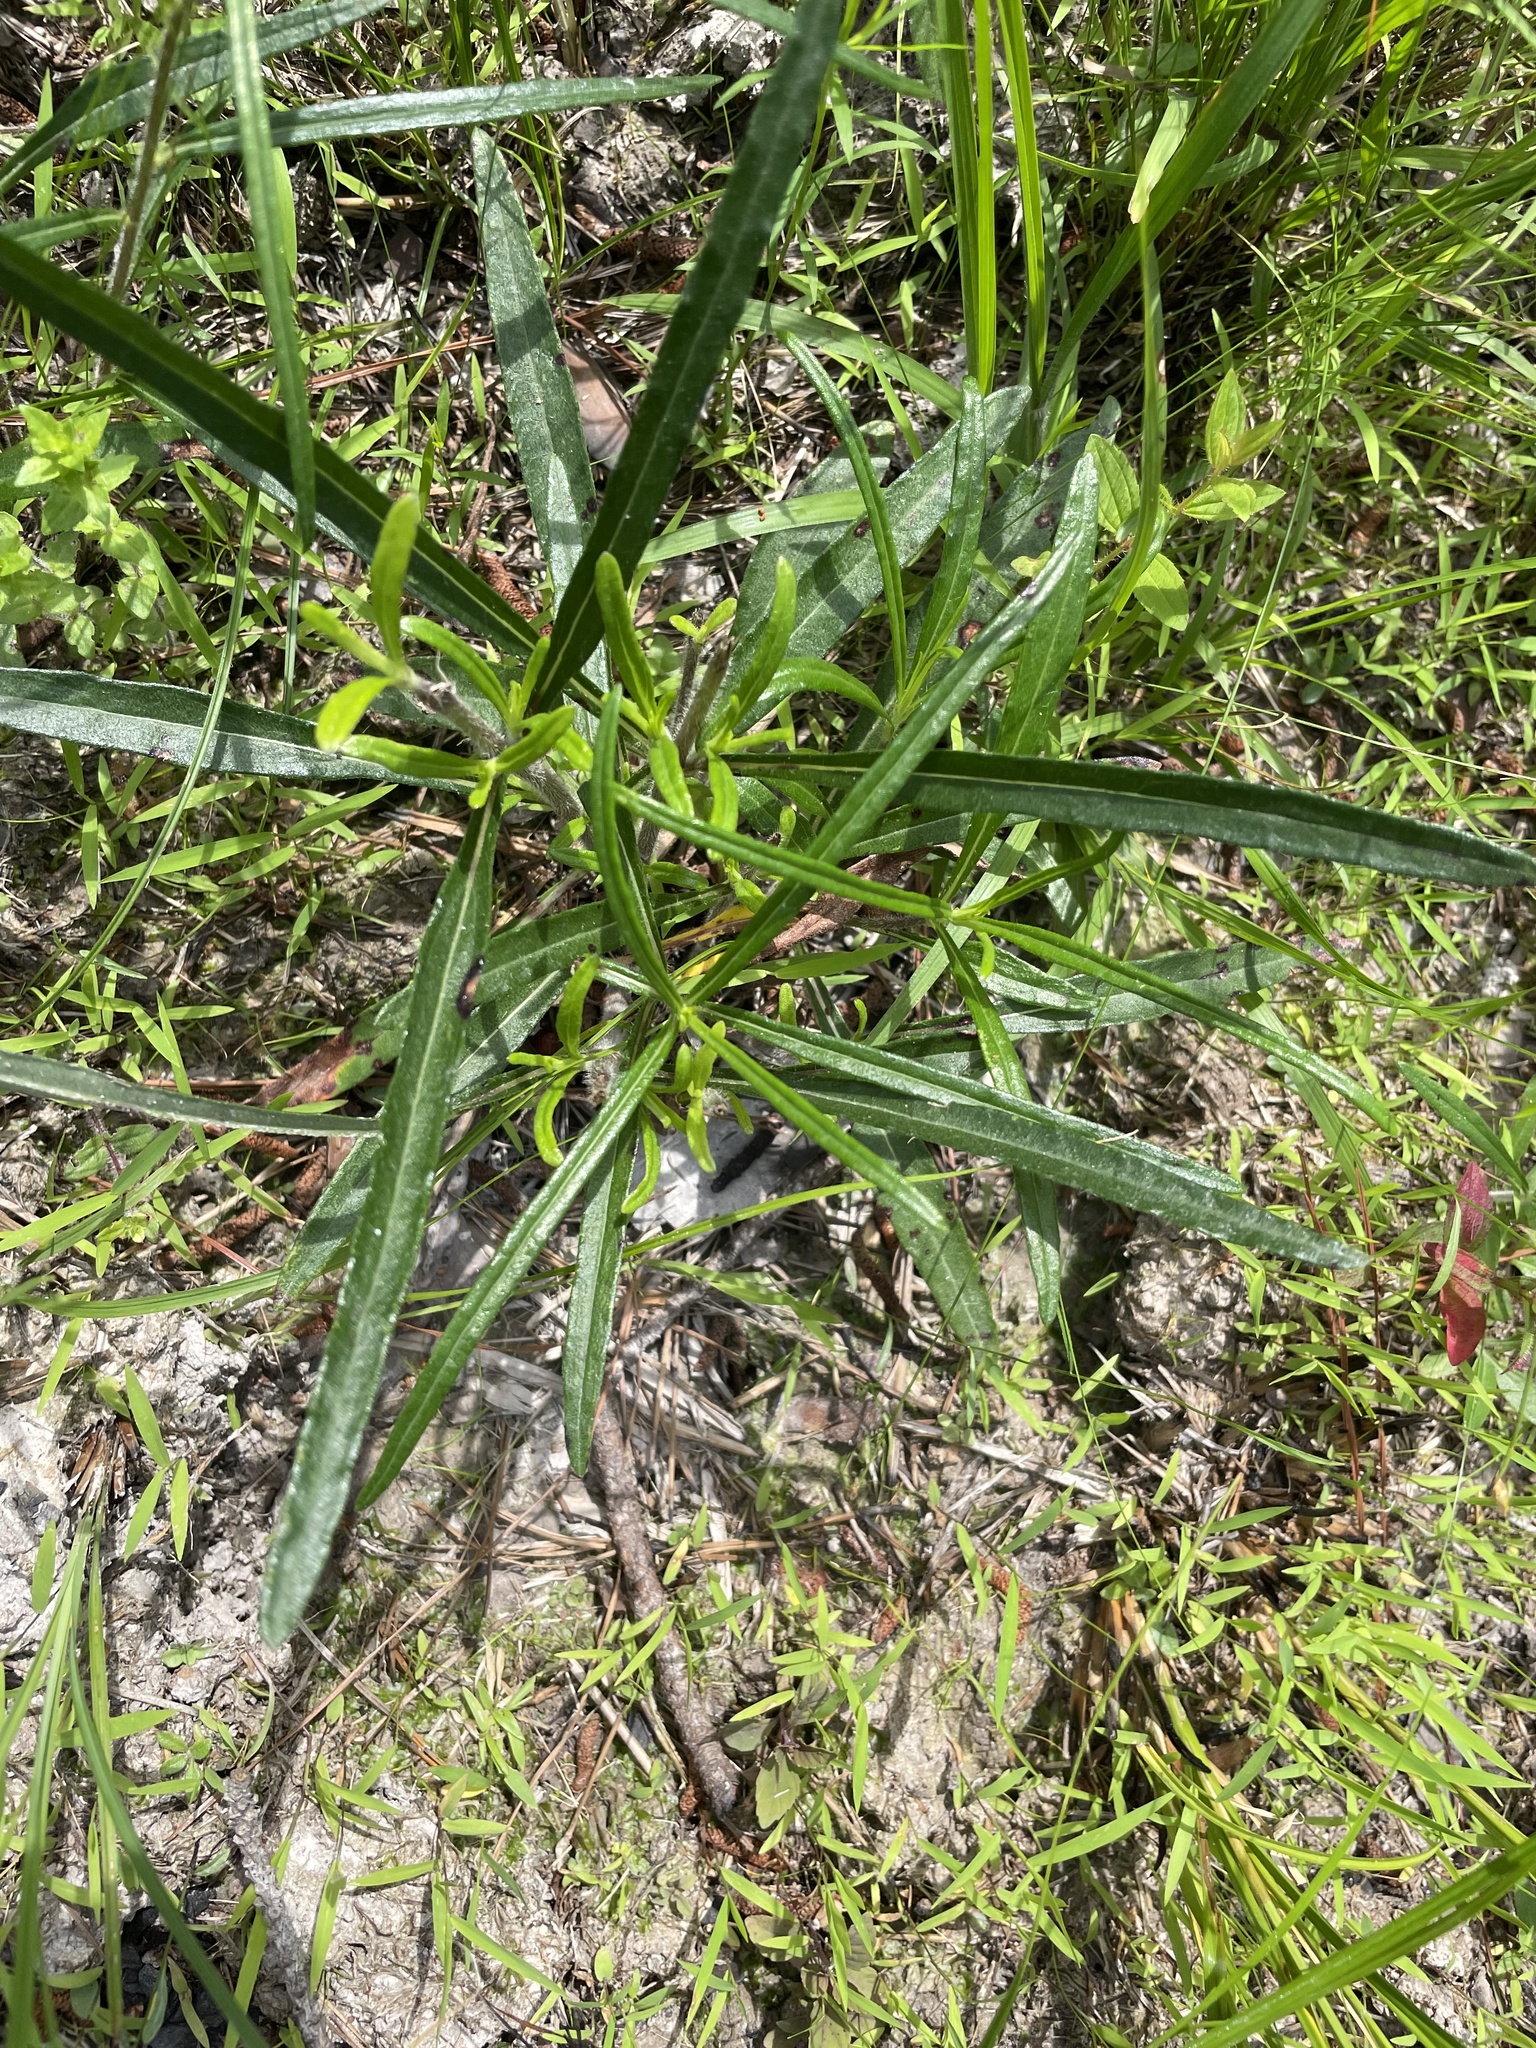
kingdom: Plantae
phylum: Tracheophyta
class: Magnoliopsida
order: Asterales
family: Asteraceae
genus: Helianthus
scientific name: Helianthus angustifolius
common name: Swamp sunflower
